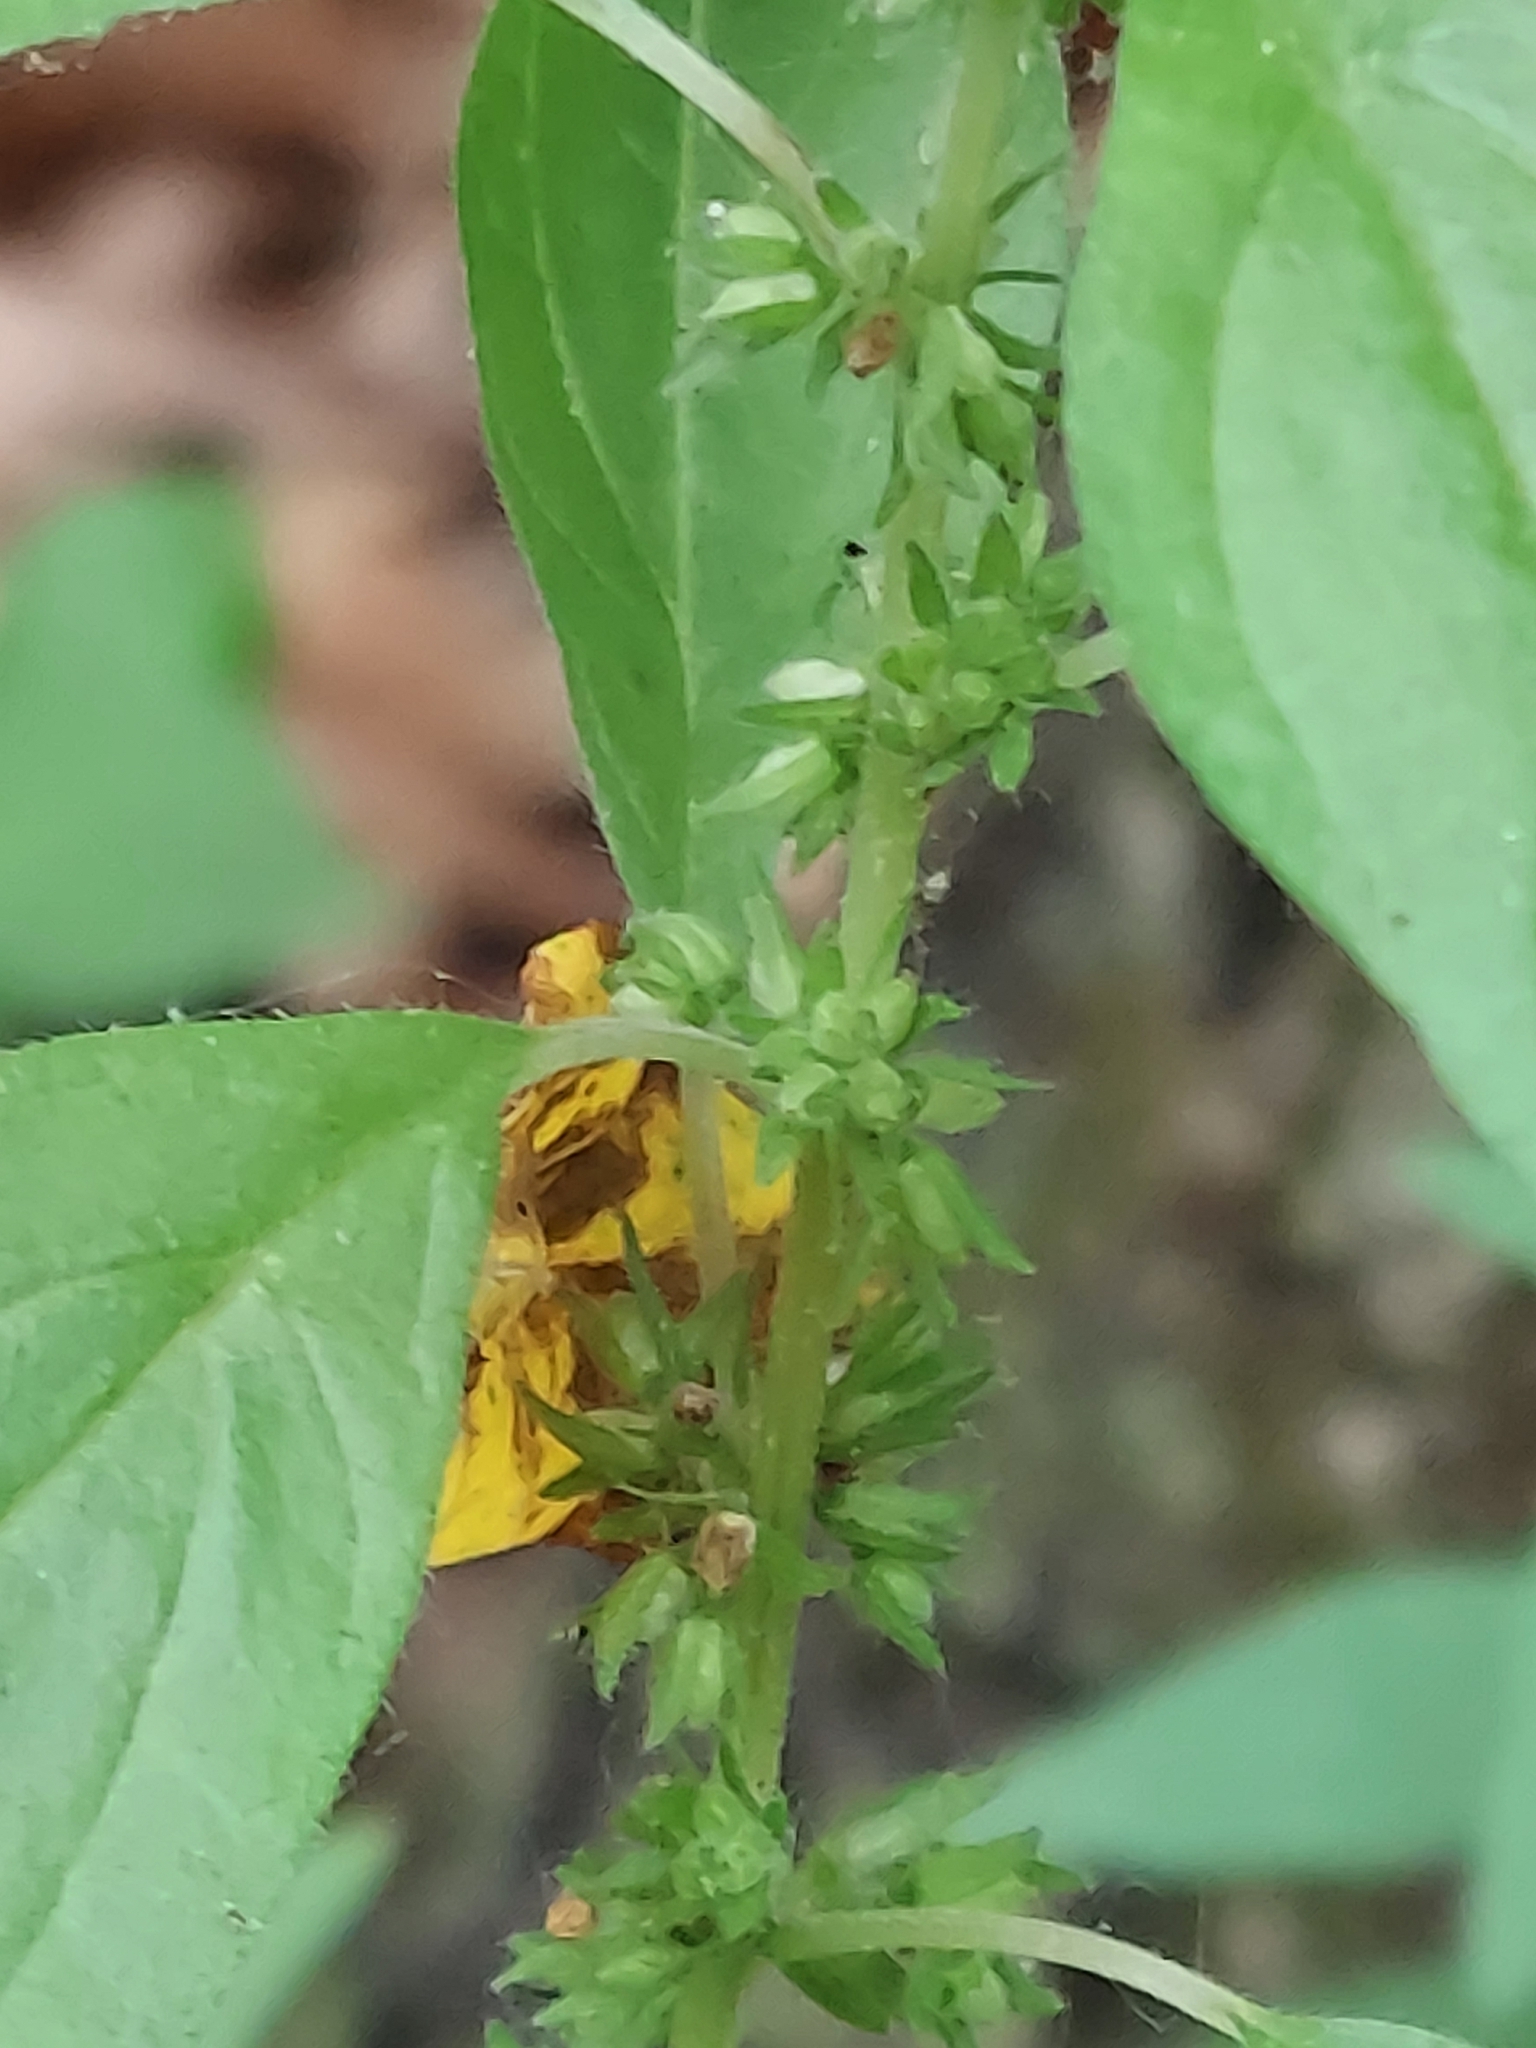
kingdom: Plantae
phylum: Tracheophyta
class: Magnoliopsida
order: Rosales
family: Urticaceae
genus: Parietaria
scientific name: Parietaria pensylvanica
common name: Pennsylvania pellitory
